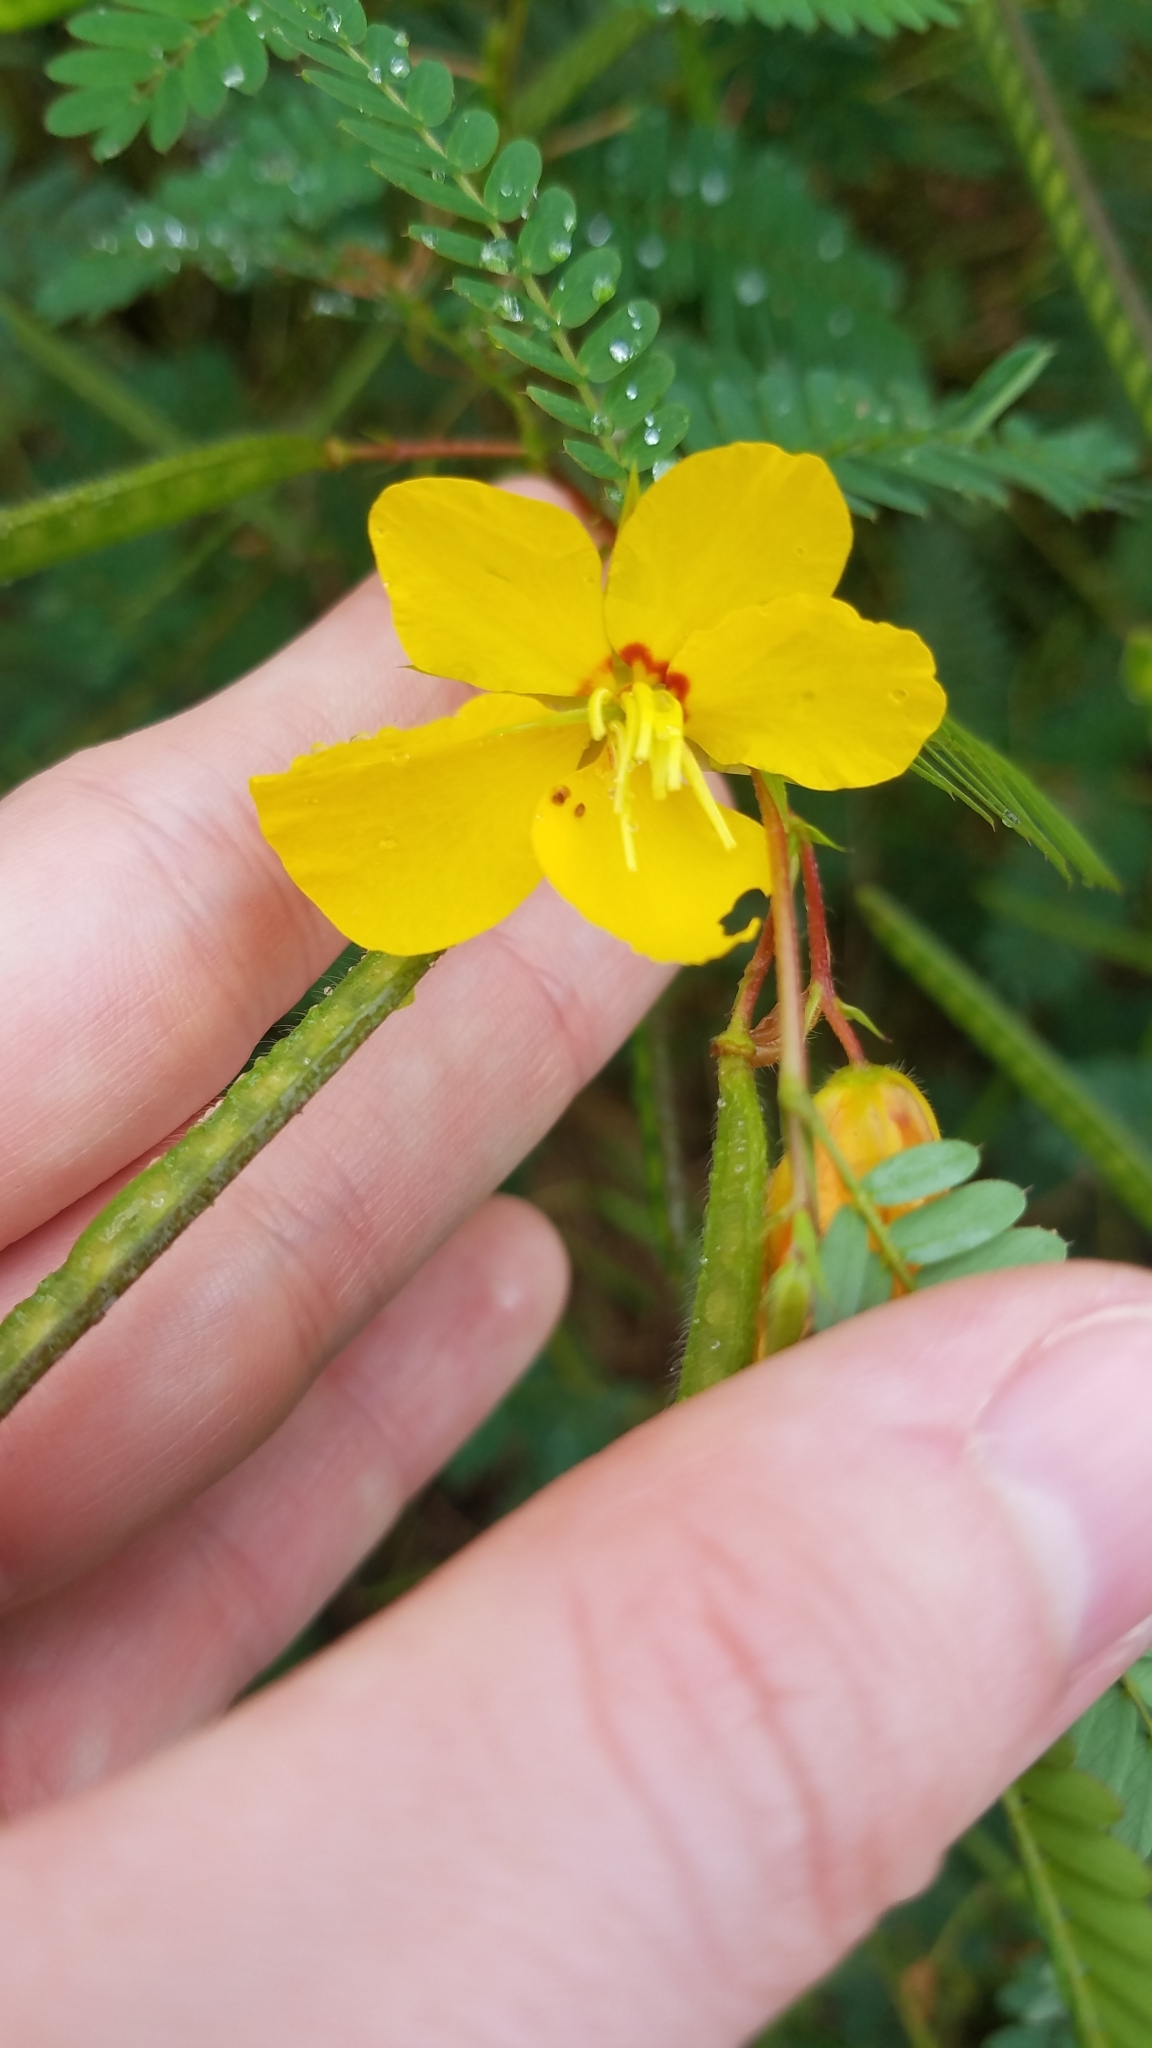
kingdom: Plantae
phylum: Tracheophyta
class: Magnoliopsida
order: Fabales
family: Fabaceae
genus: Chamaecrista
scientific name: Chamaecrista fasciculata
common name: Golden cassia
